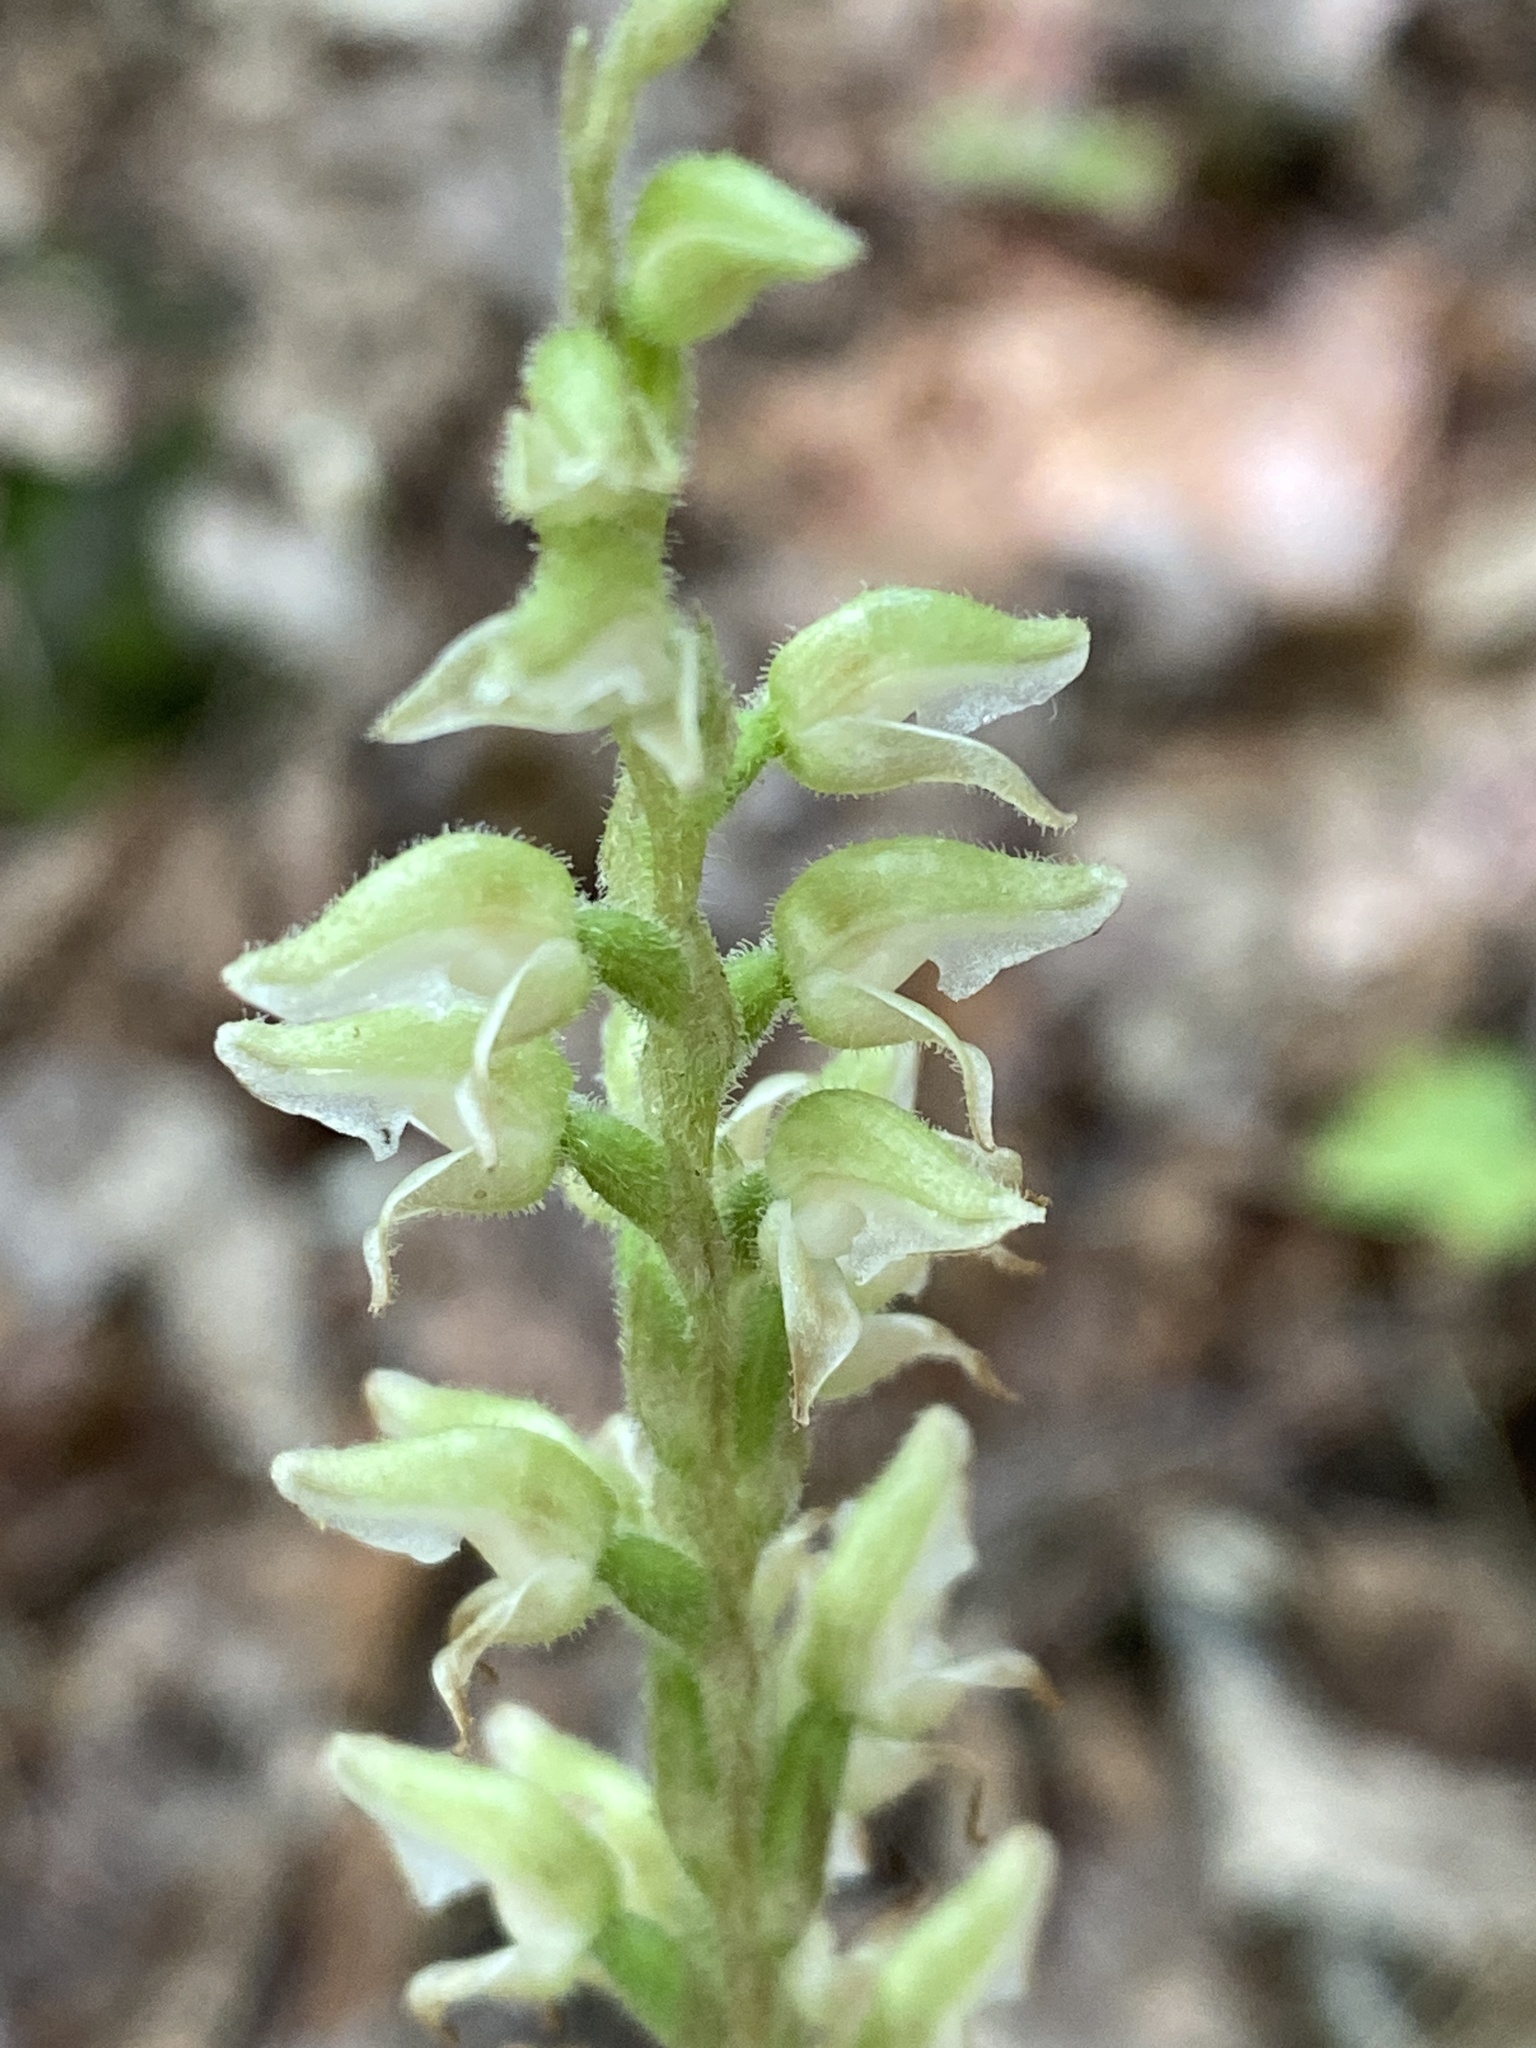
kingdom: Plantae
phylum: Tracheophyta
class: Liliopsida
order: Asparagales
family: Orchidaceae
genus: Goodyera
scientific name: Goodyera oblongifolia
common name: Giant rattlesnake-plantain
